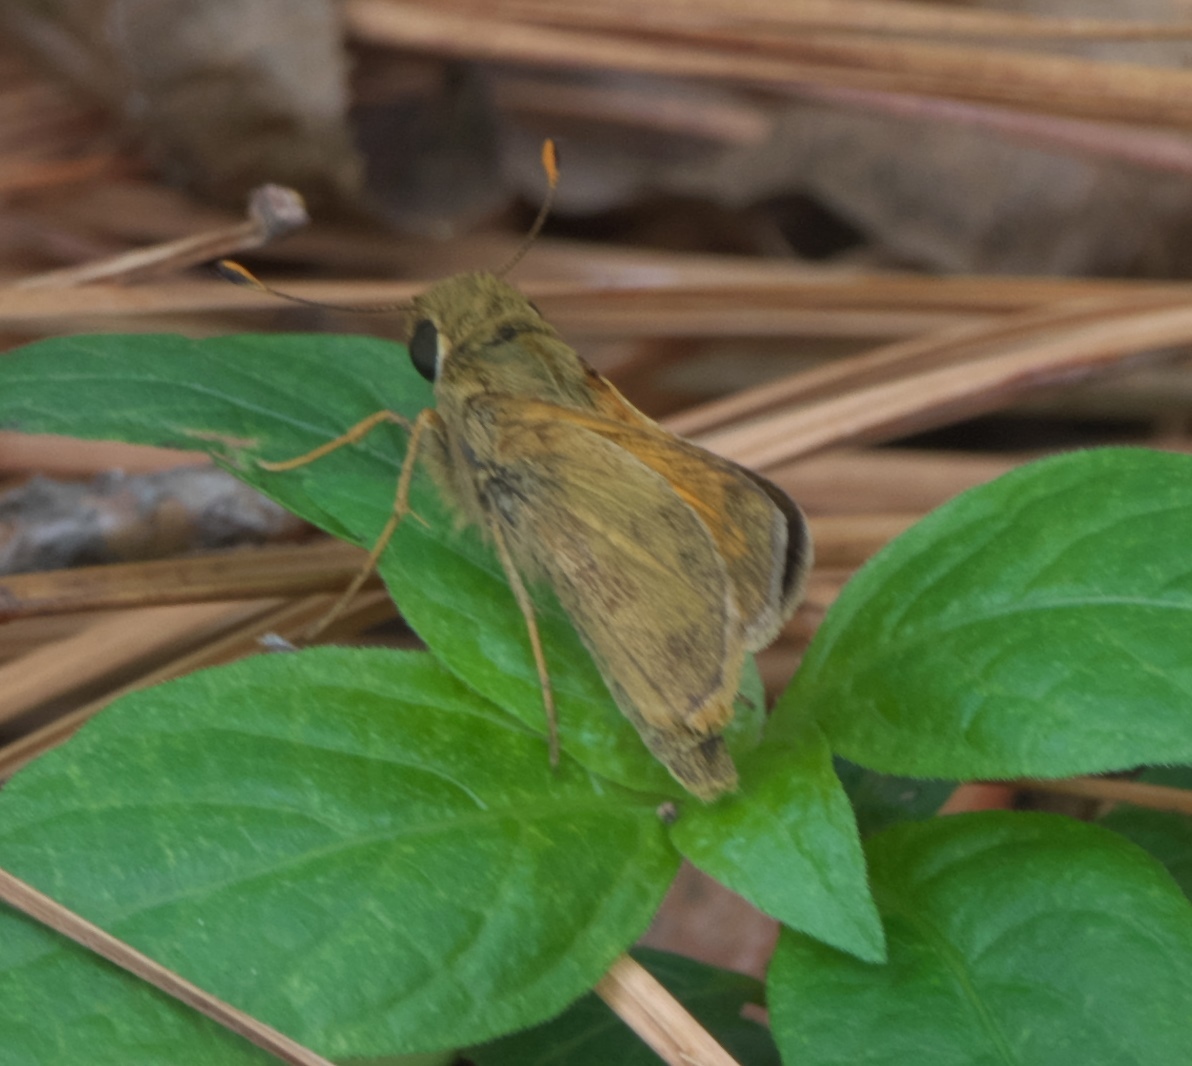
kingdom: Animalia
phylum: Arthropoda
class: Insecta
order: Lepidoptera
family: Hesperiidae
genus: Atalopedes
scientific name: Atalopedes
